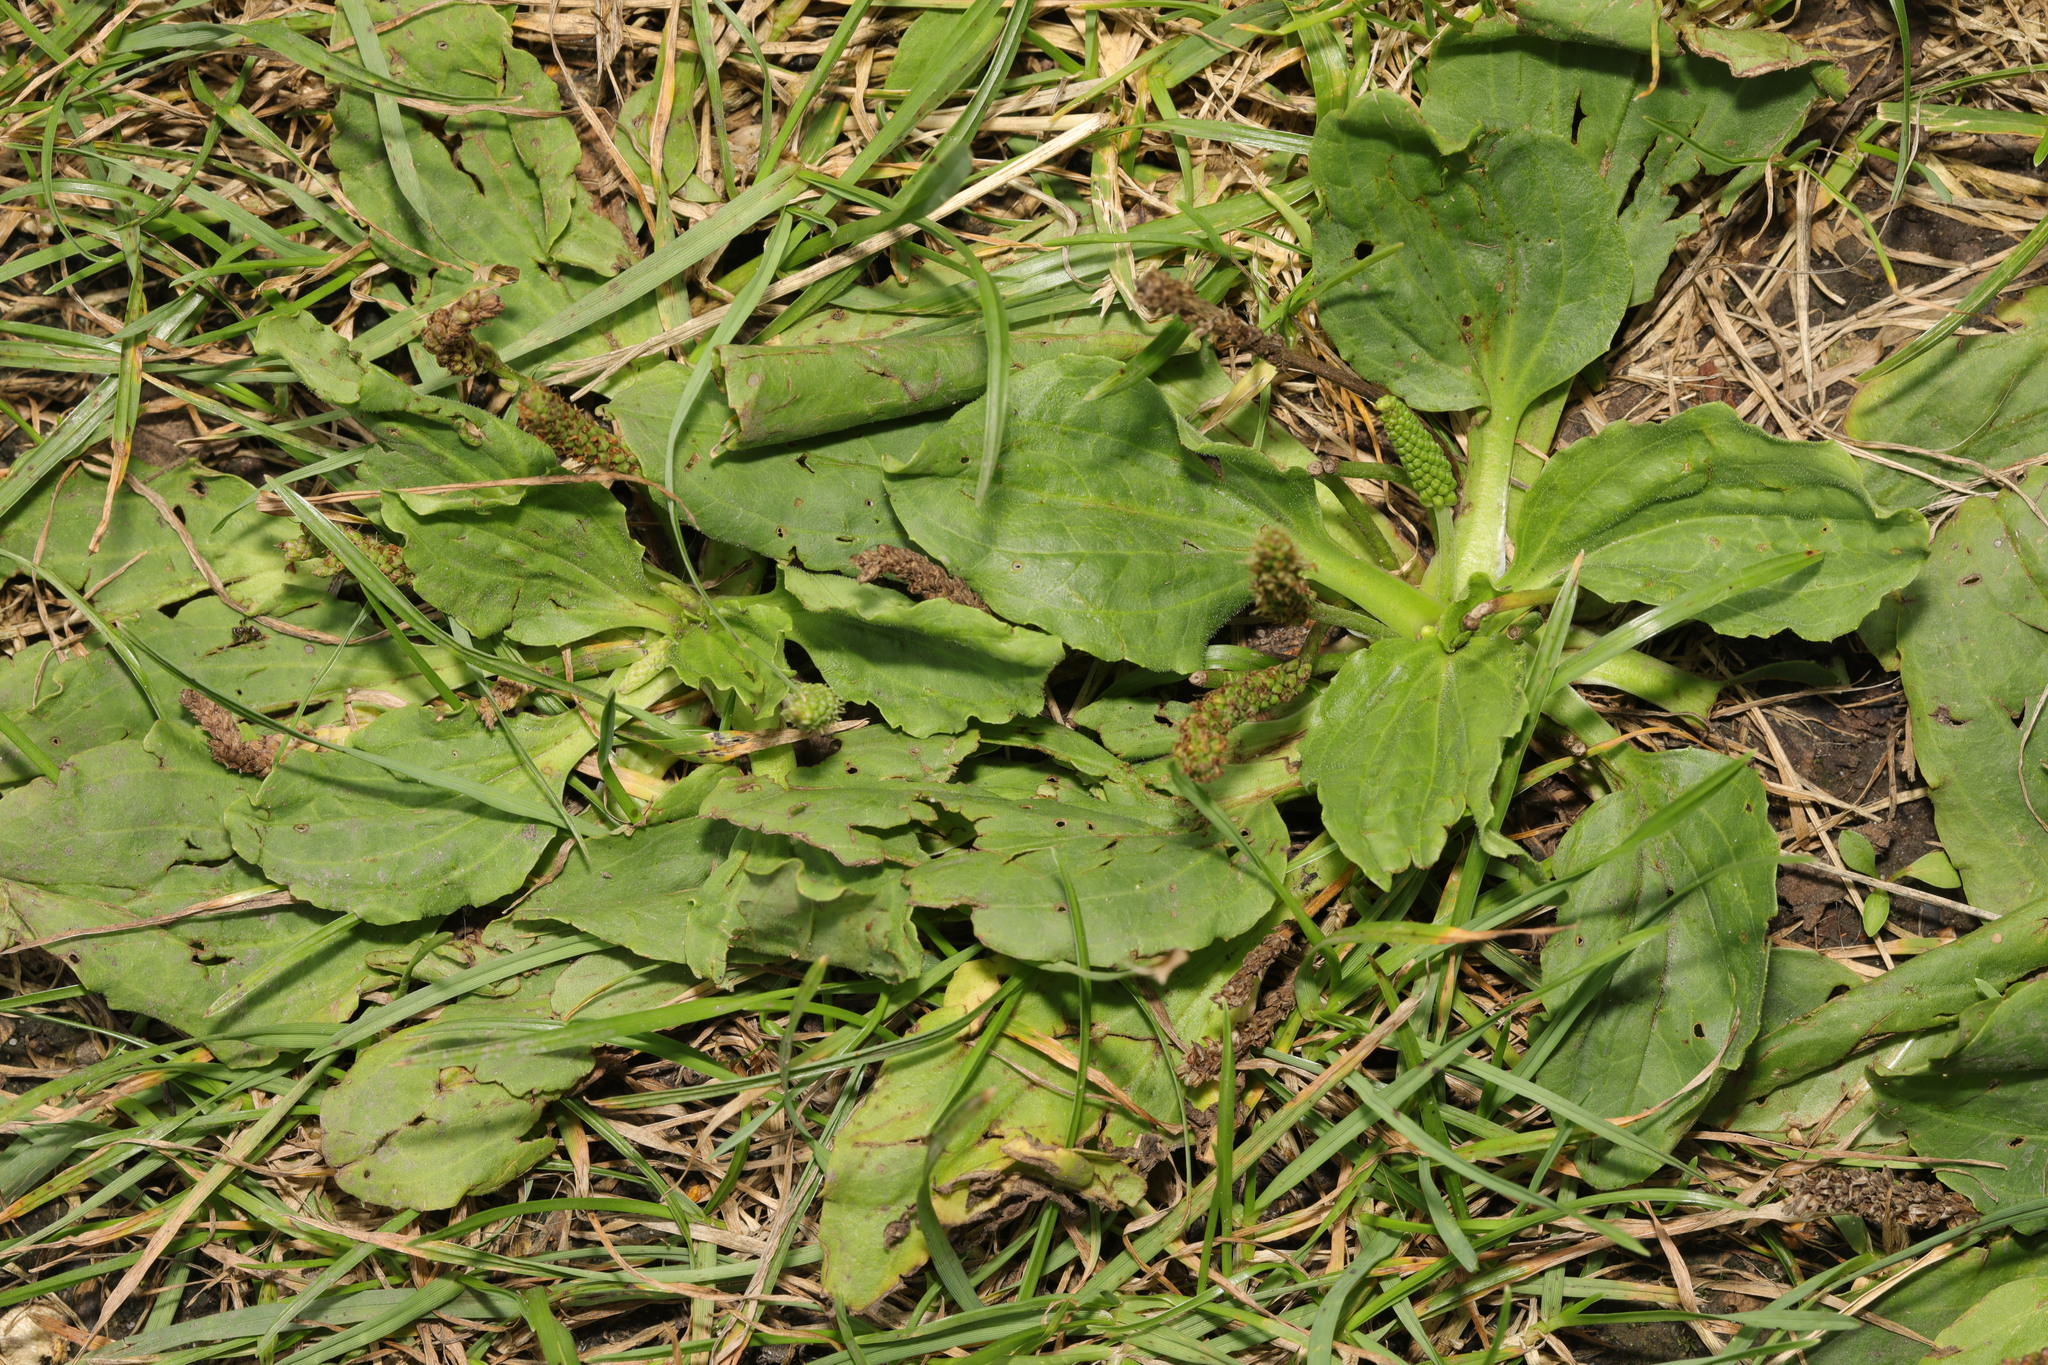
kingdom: Plantae
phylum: Tracheophyta
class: Magnoliopsida
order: Lamiales
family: Plantaginaceae
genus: Plantago
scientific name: Plantago major
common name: Common plantain
